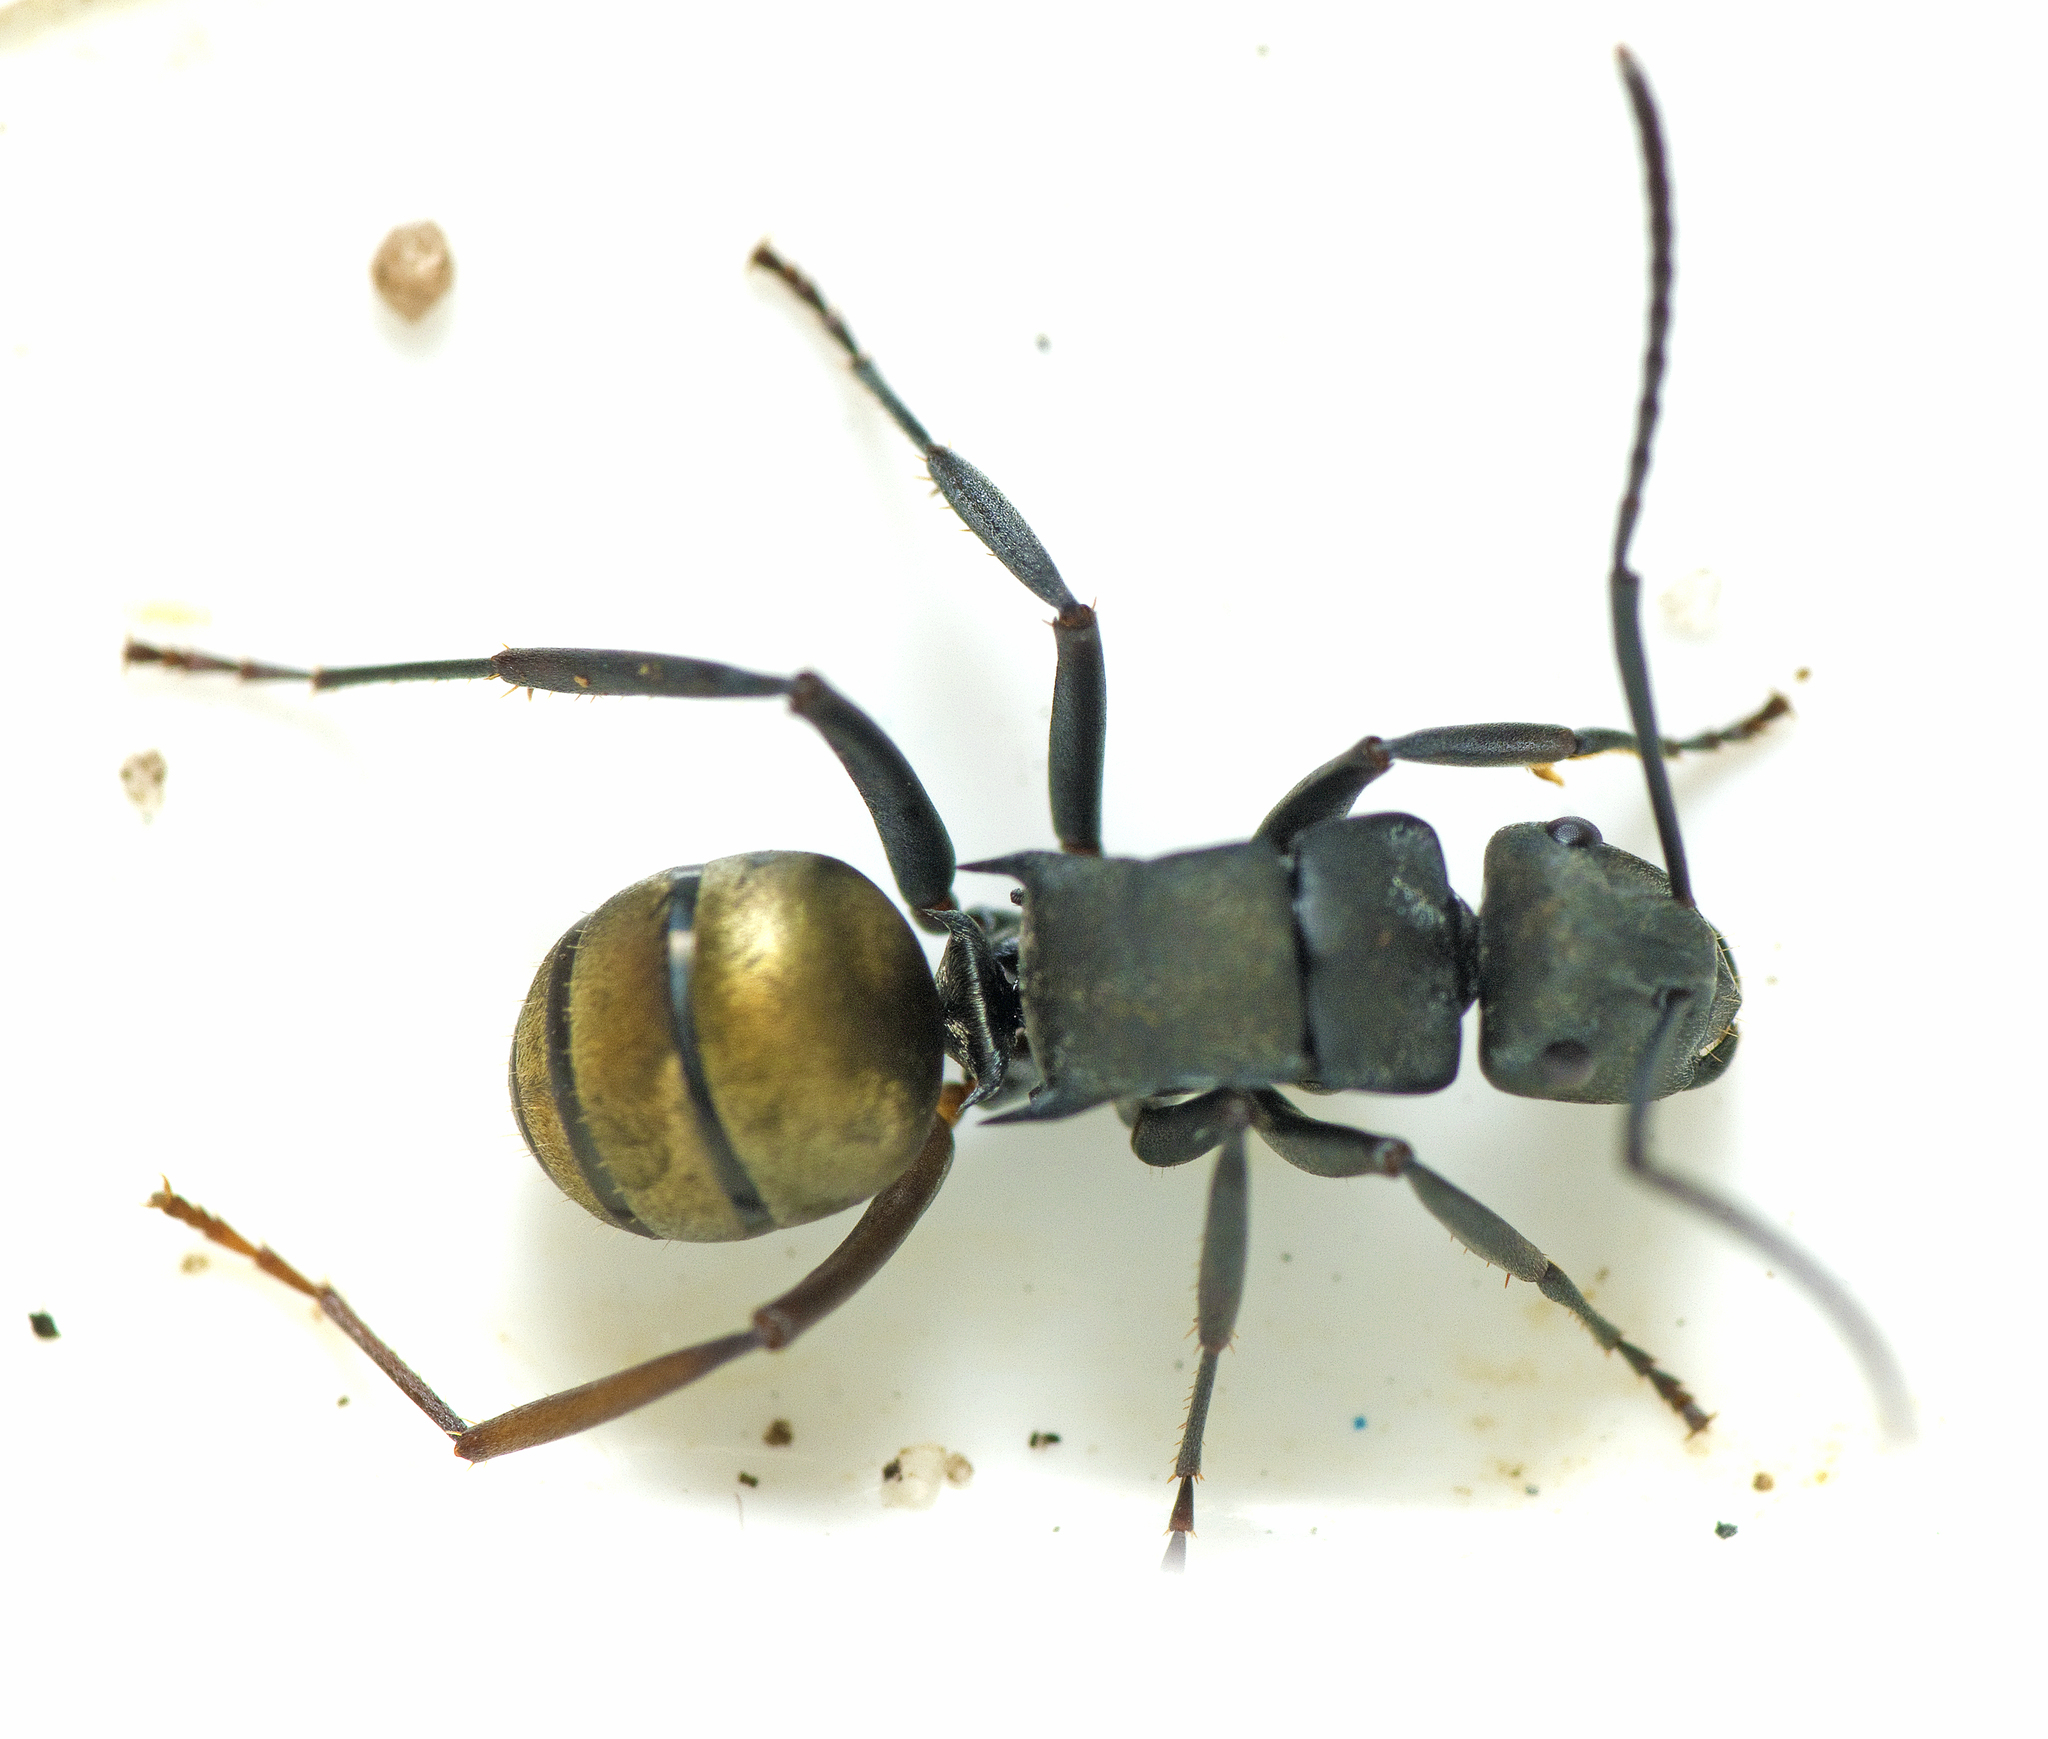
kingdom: Animalia
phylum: Arthropoda
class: Insecta
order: Hymenoptera
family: Formicidae
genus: Polyrhachis
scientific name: Polyrhachis tubifera
